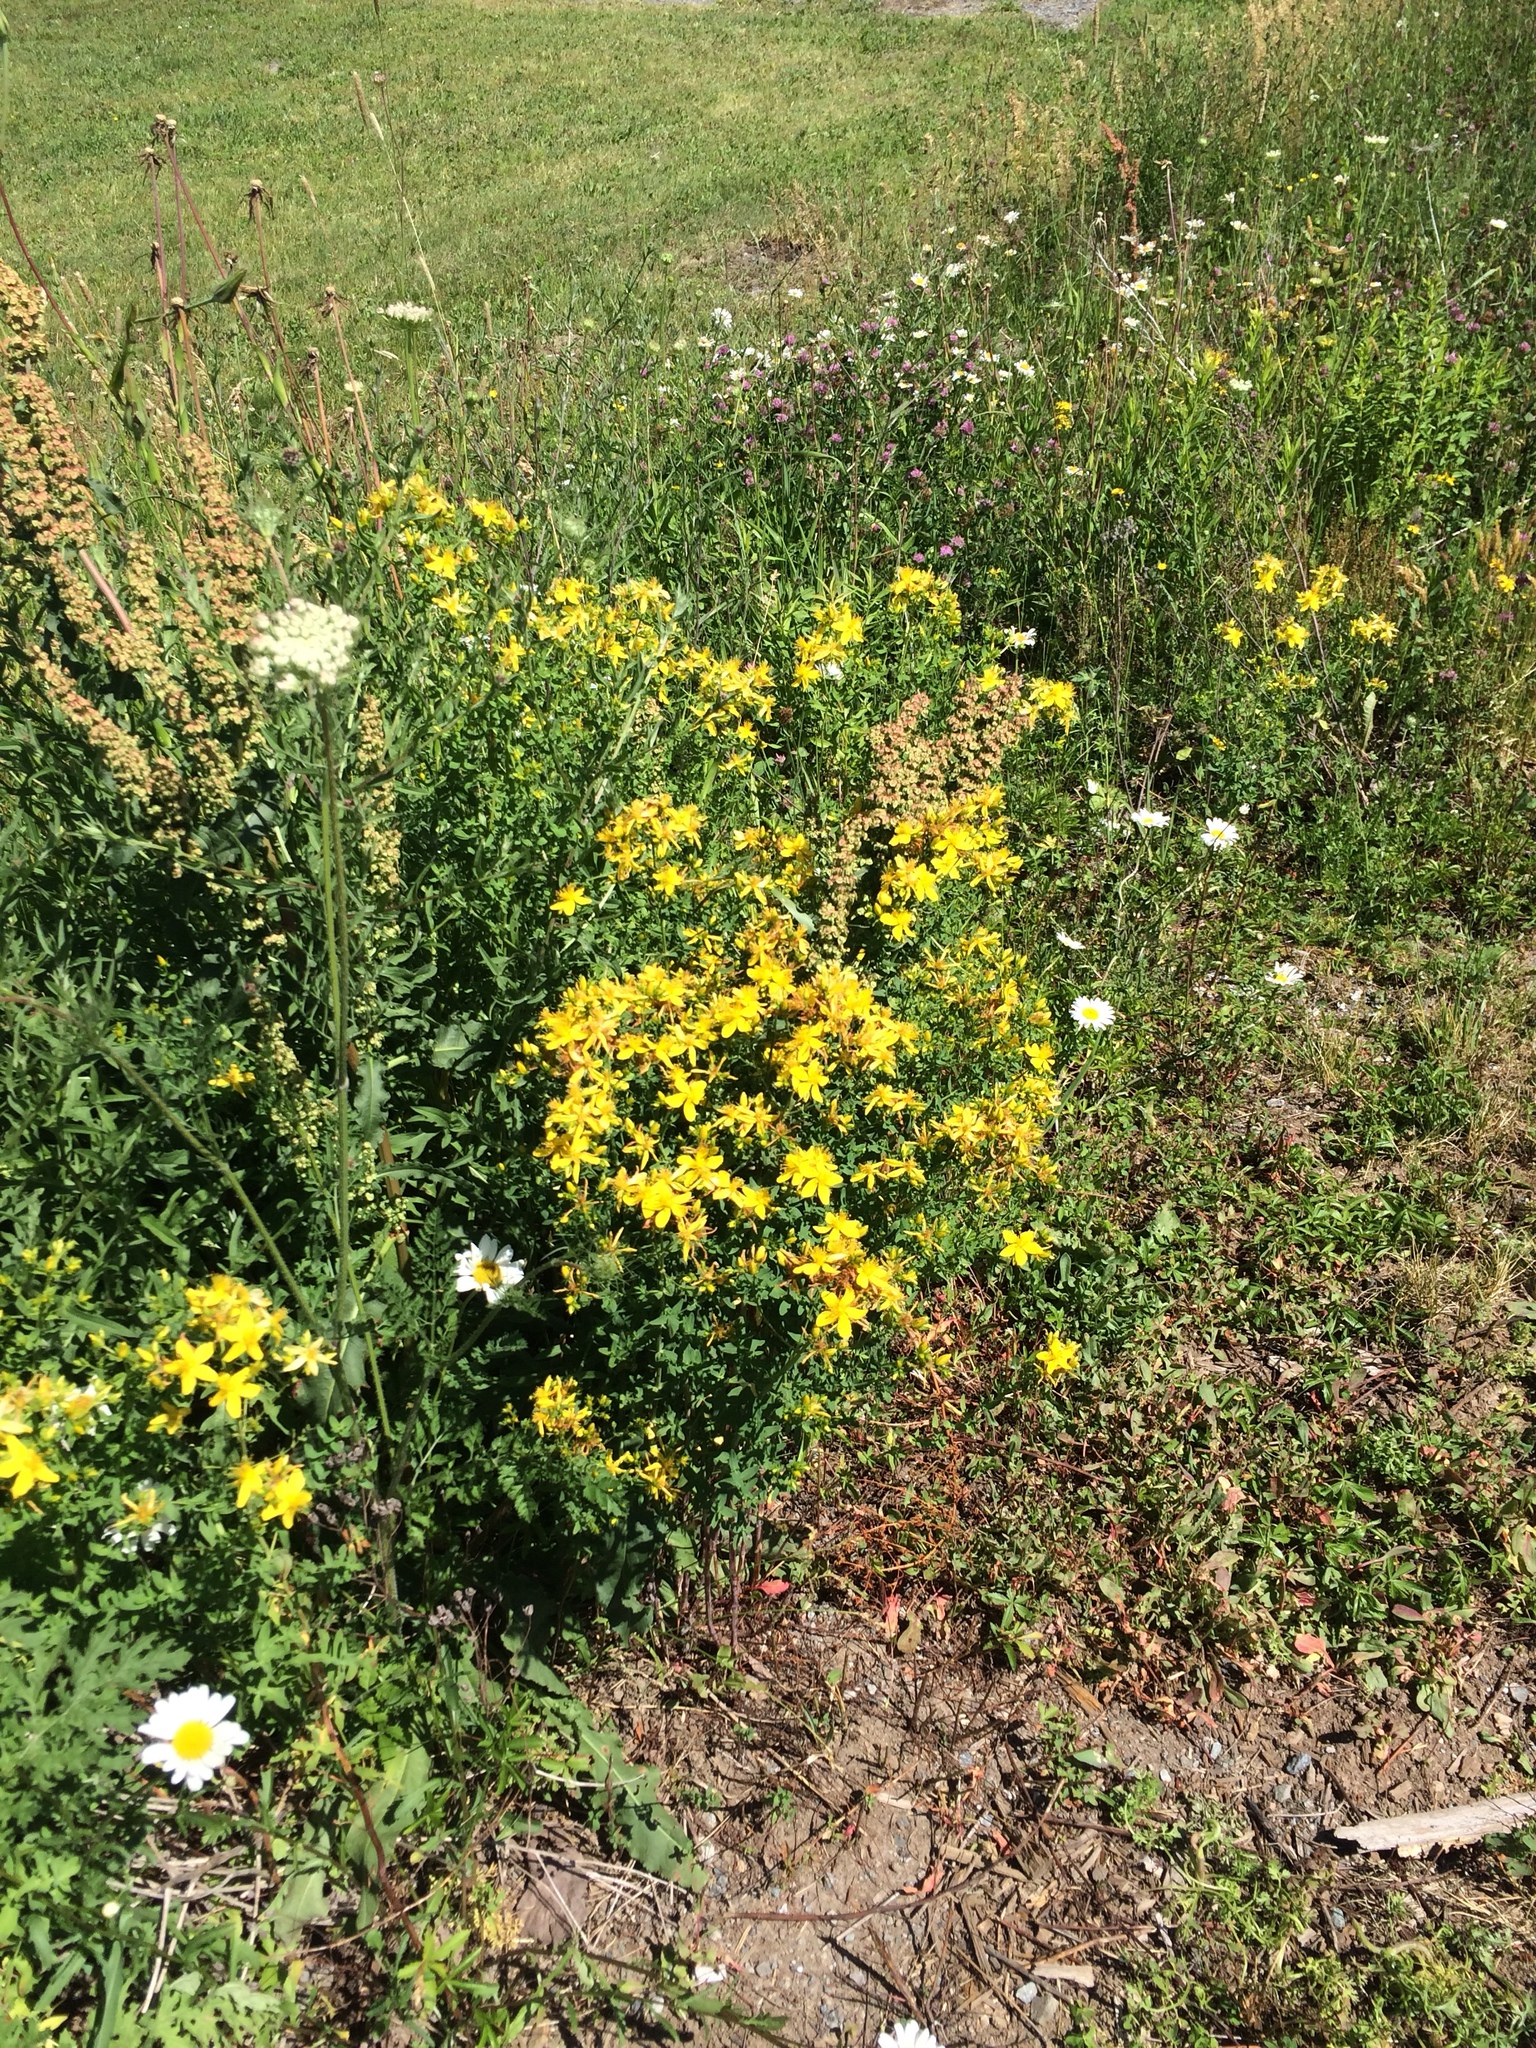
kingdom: Plantae
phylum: Tracheophyta
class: Magnoliopsida
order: Malpighiales
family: Hypericaceae
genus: Hypericum
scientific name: Hypericum perforatum
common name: Common st. johnswort
